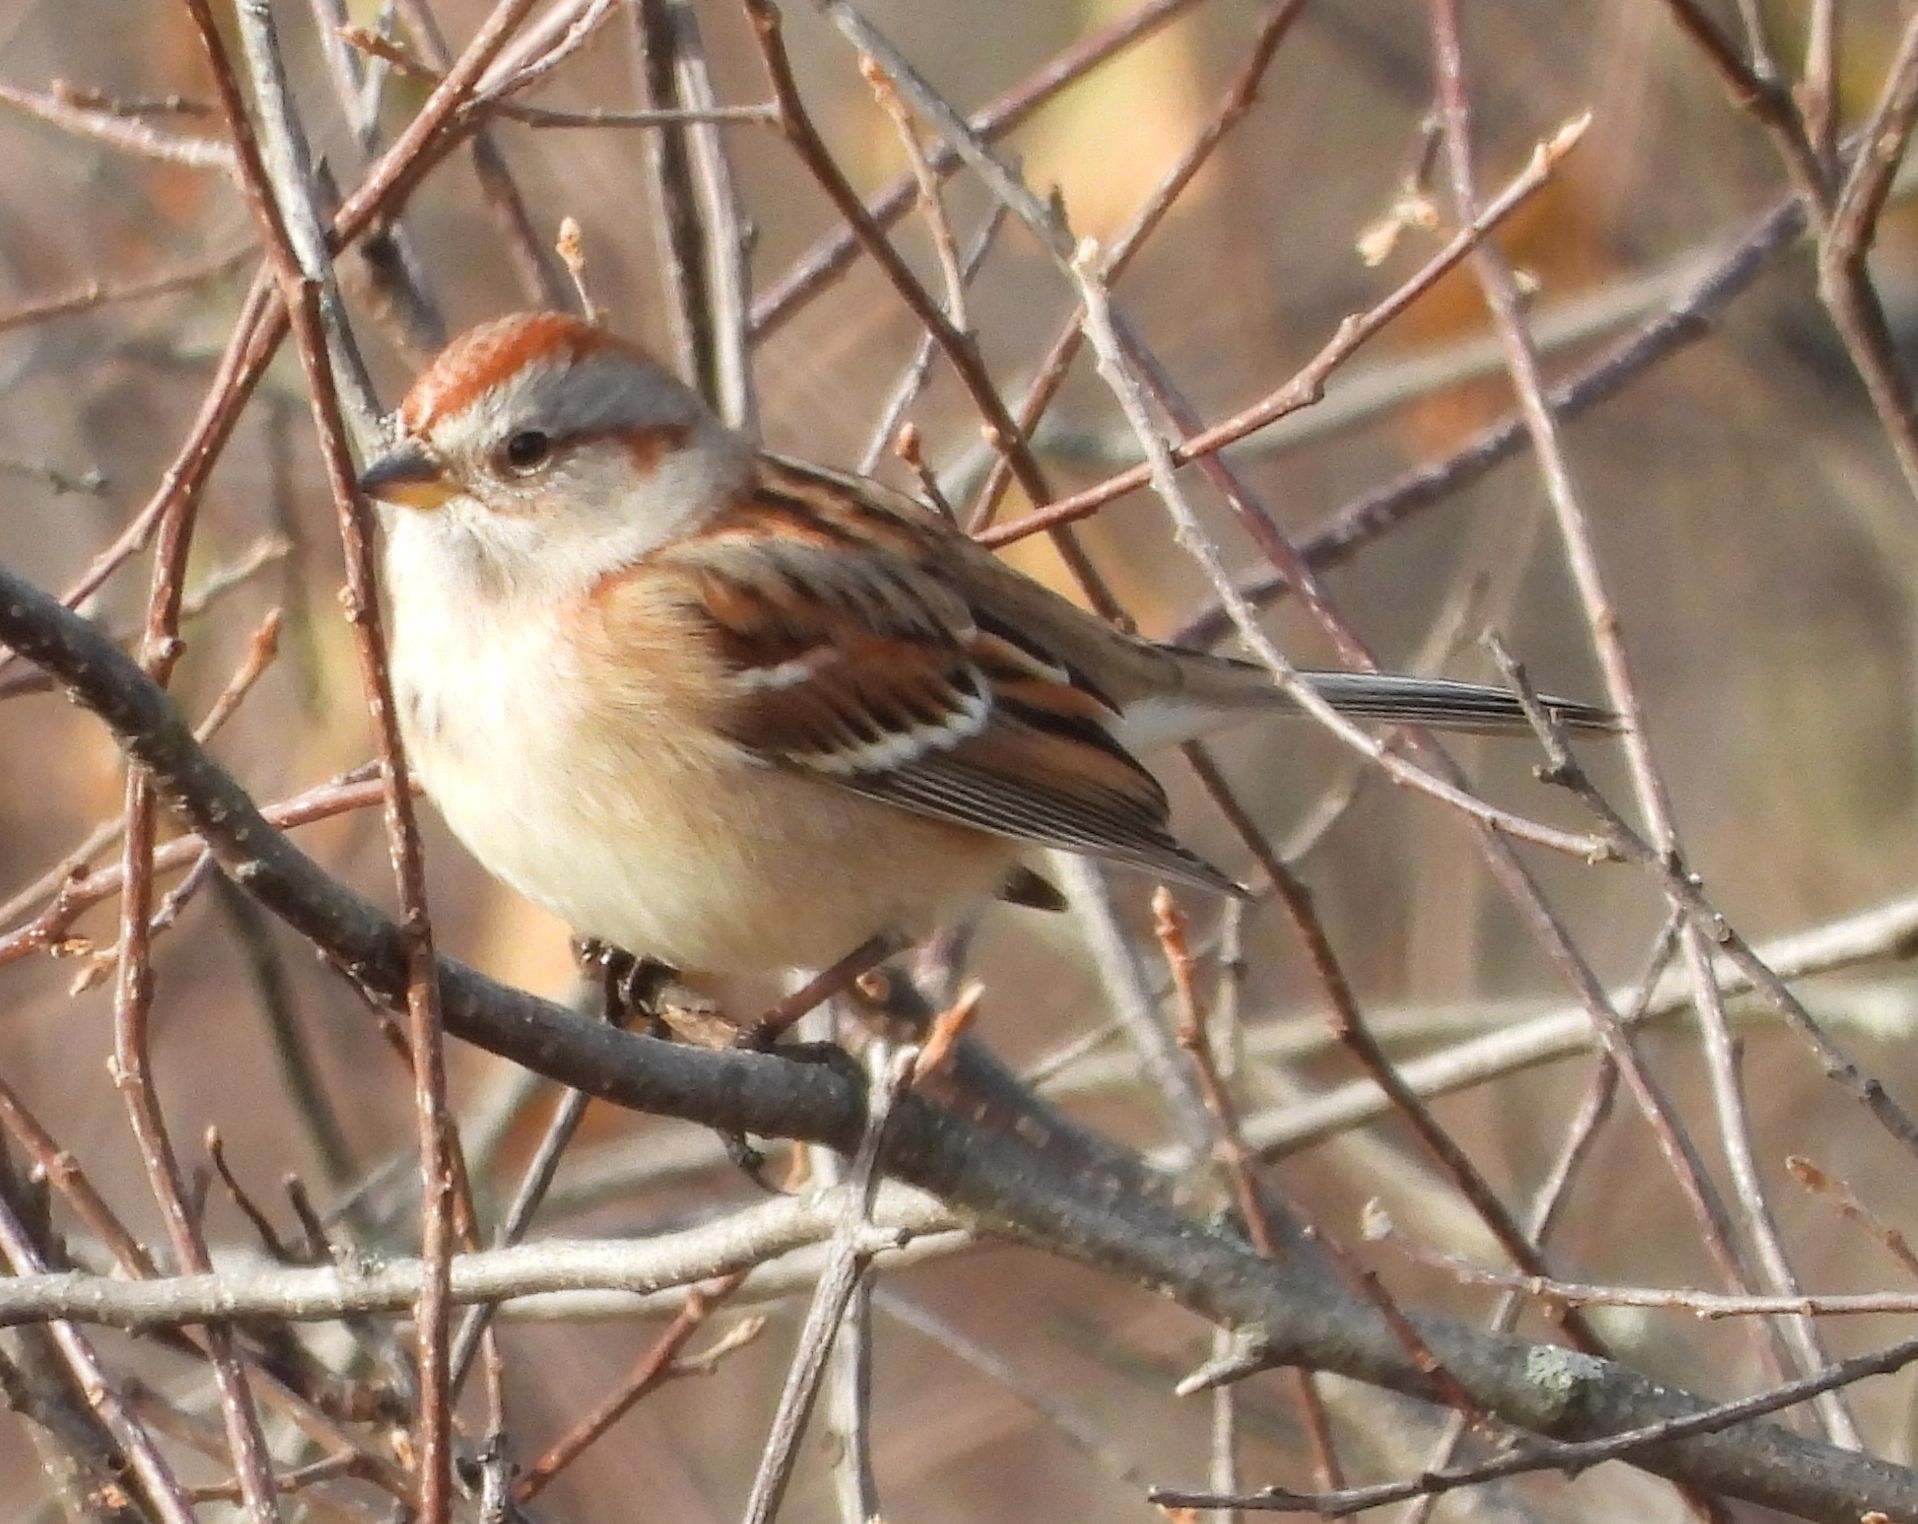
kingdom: Animalia
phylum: Chordata
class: Aves
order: Passeriformes
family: Passerellidae
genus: Spizelloides
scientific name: Spizelloides arborea
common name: American tree sparrow
